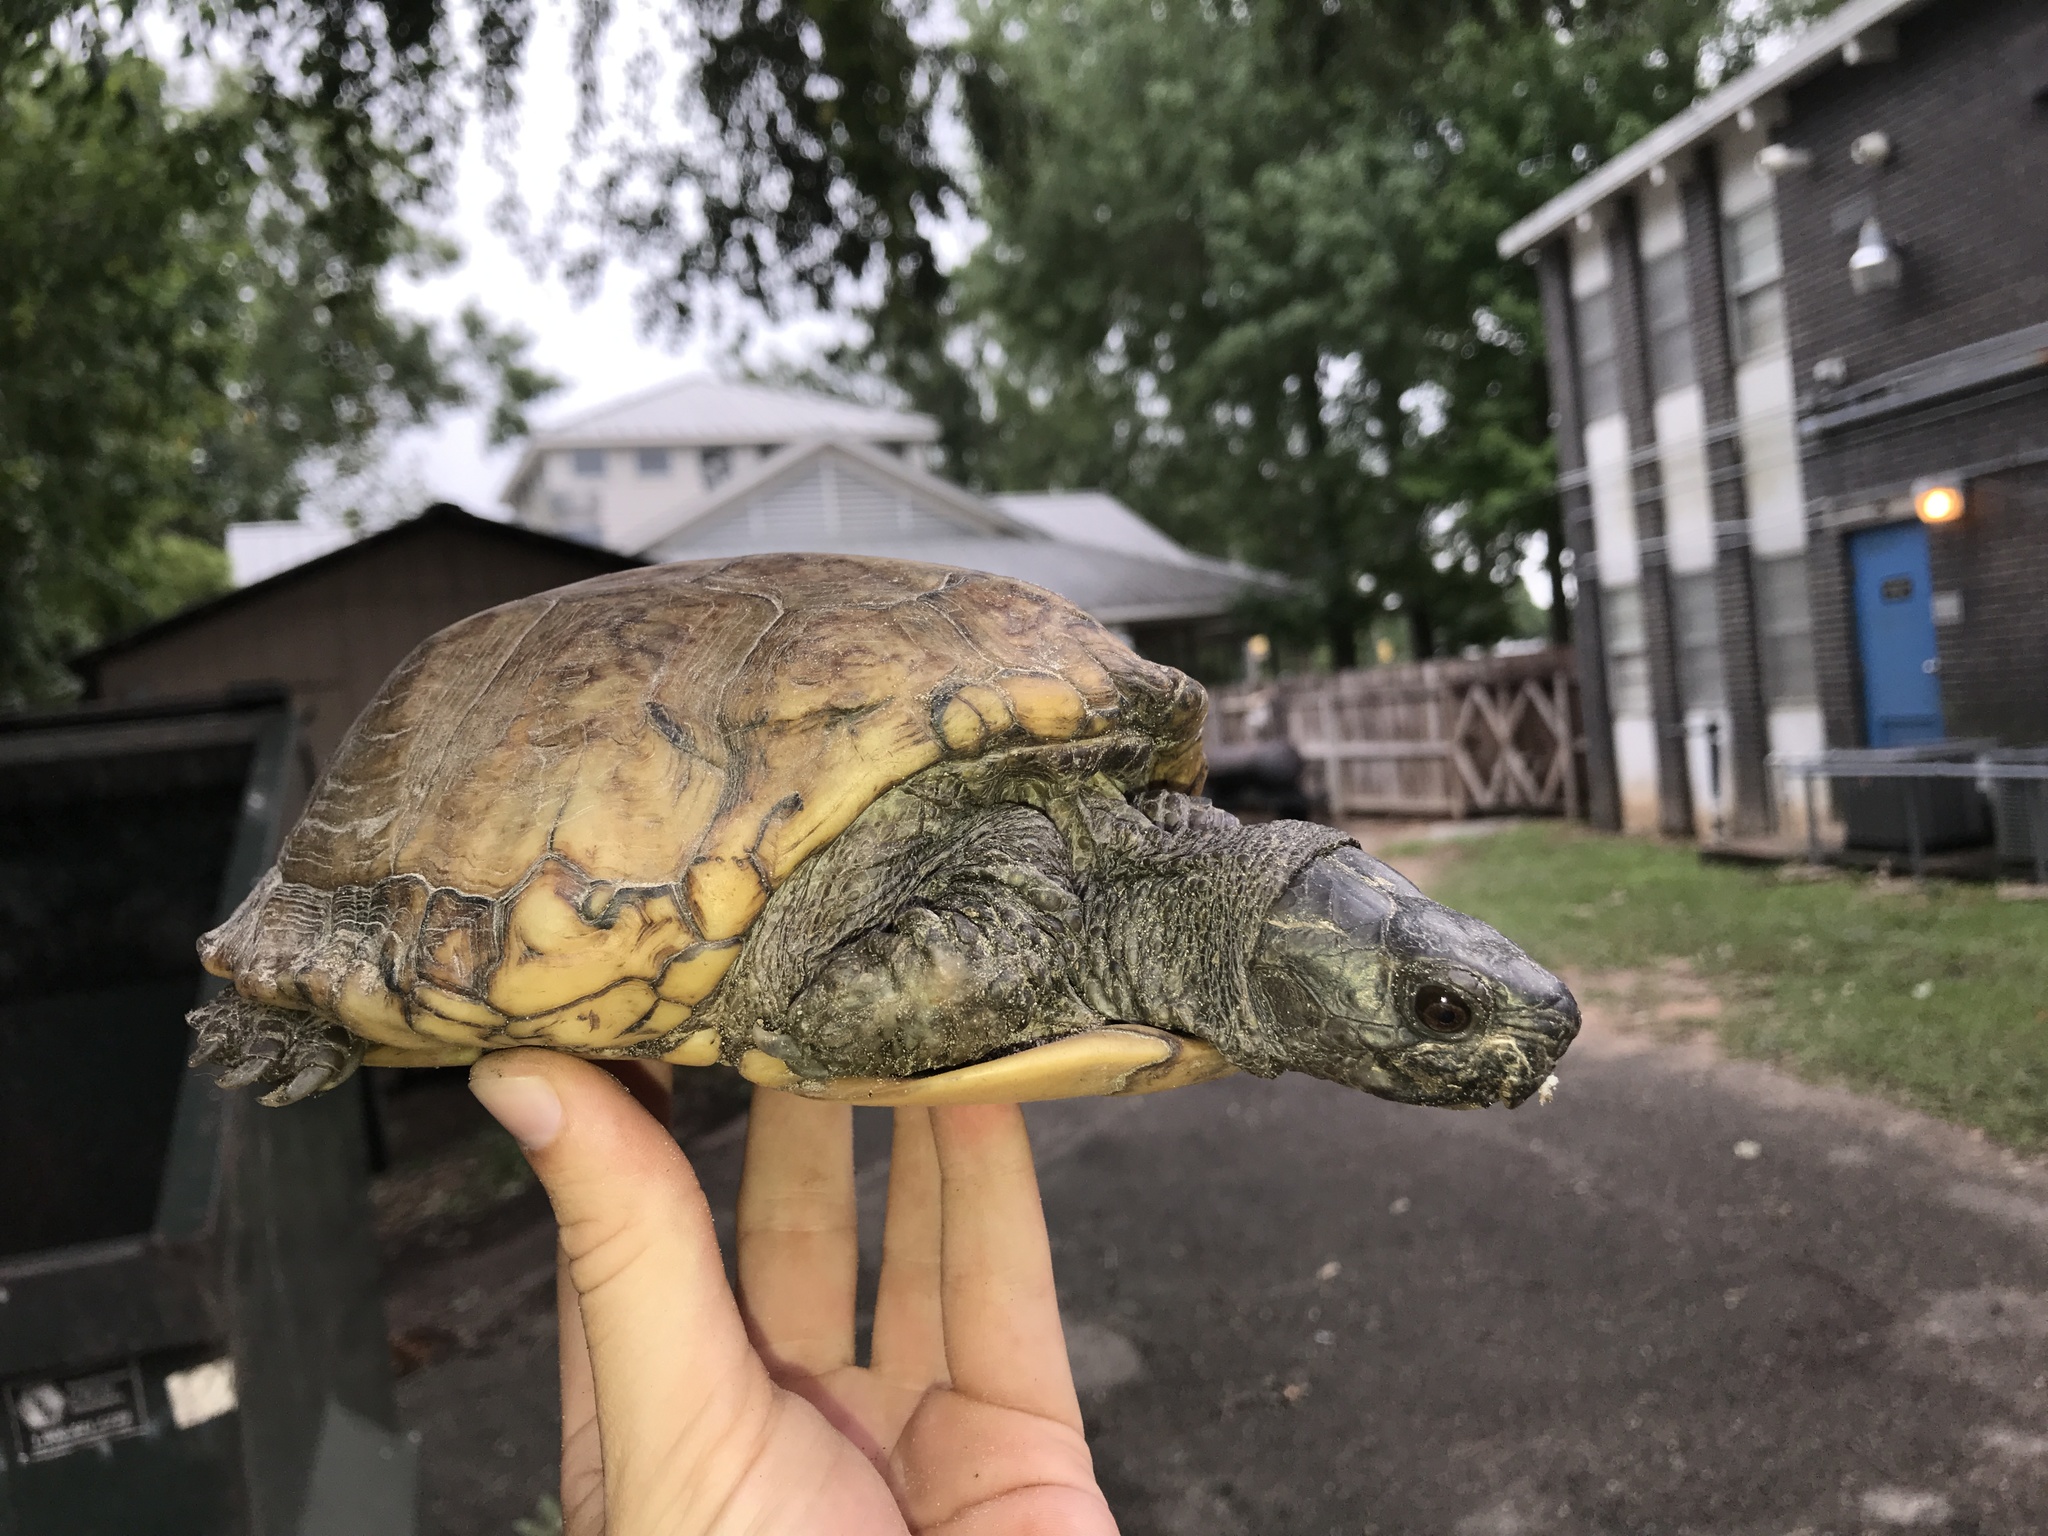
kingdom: Animalia
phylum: Chordata
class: Testudines
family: Emydidae
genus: Terrapene
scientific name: Terrapene carolina
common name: Common box turtle
